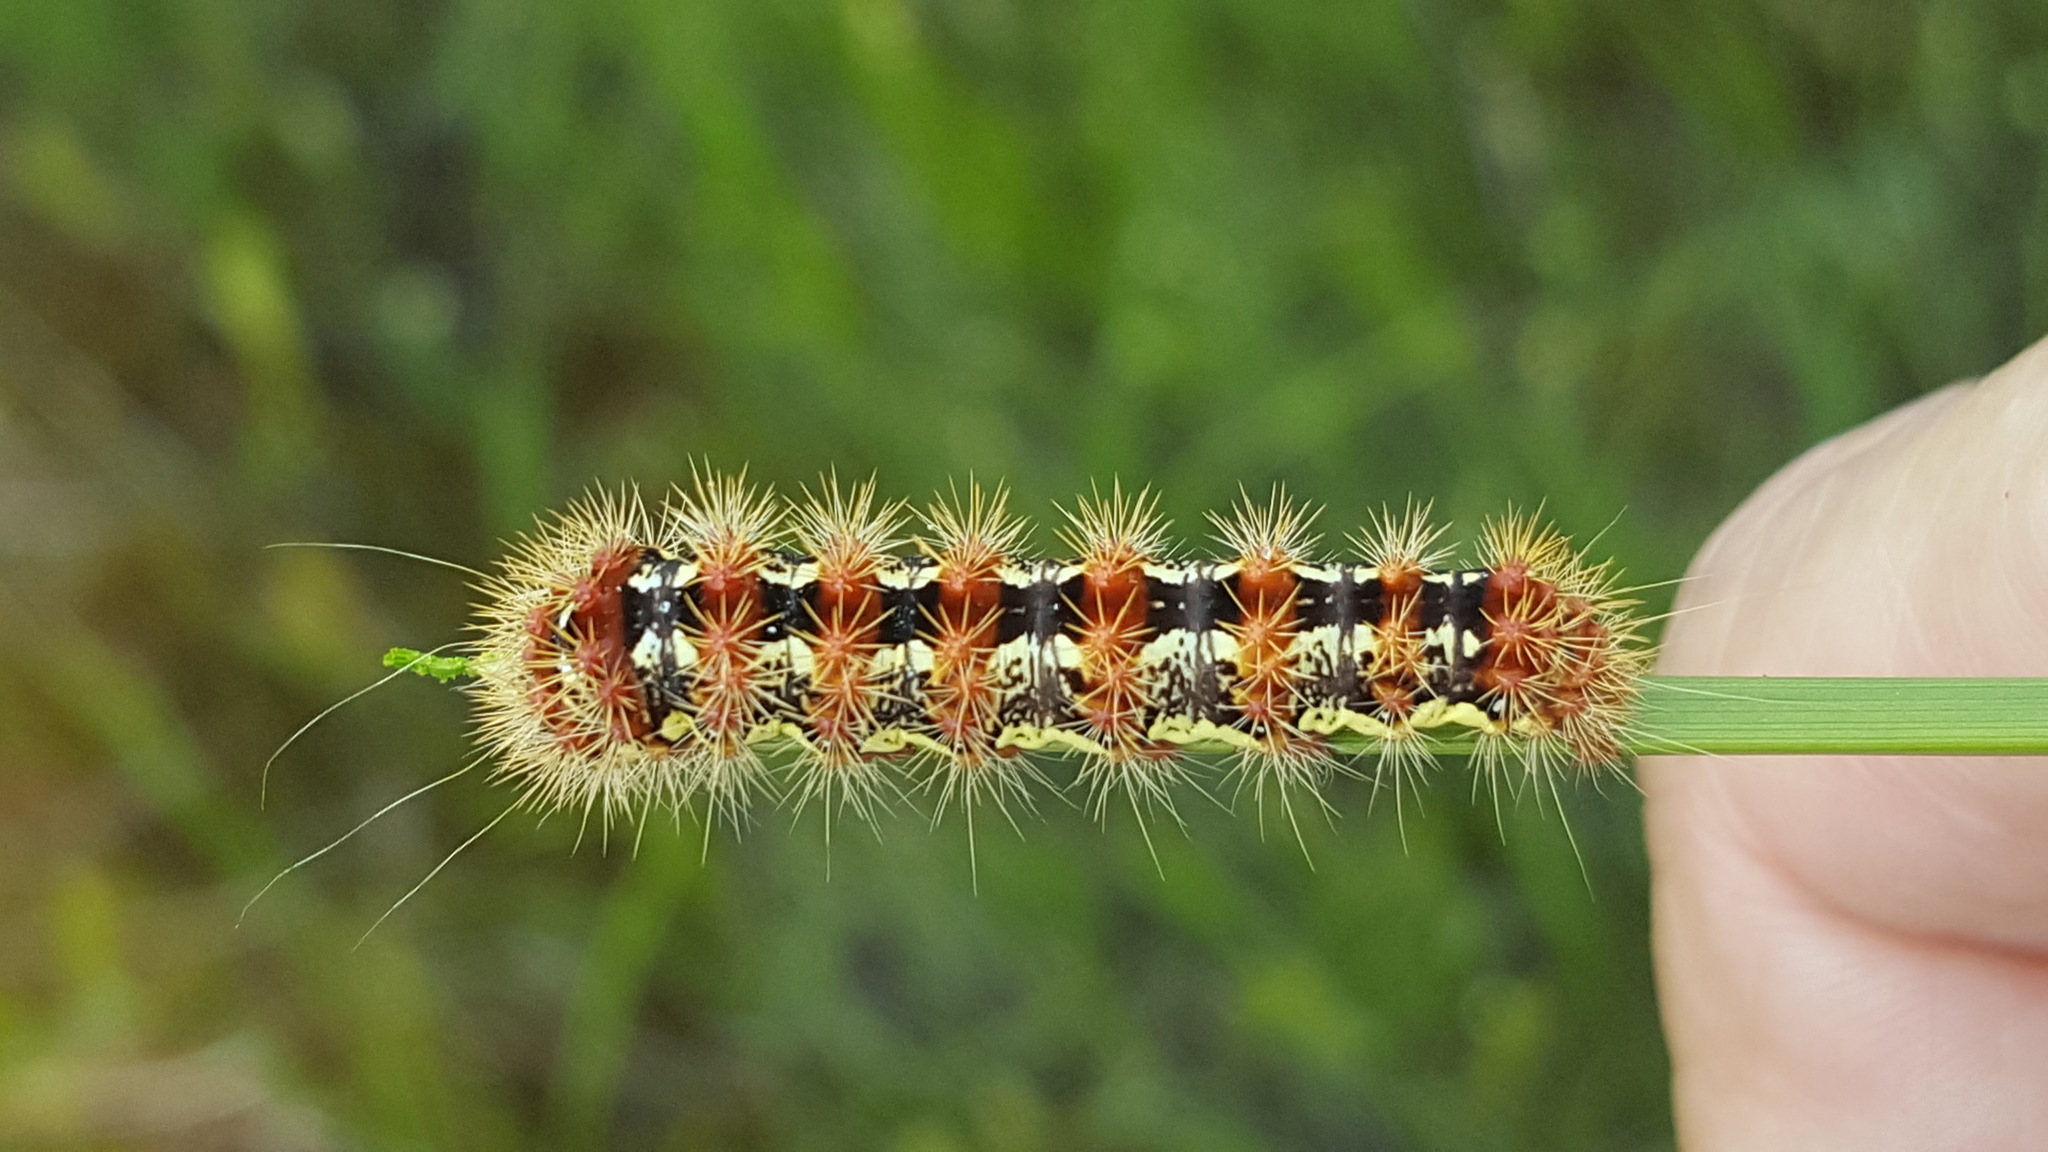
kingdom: Animalia
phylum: Arthropoda
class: Insecta
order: Lepidoptera
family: Noctuidae
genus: Acronicta
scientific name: Acronicta oblinita
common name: Smeared dagger
